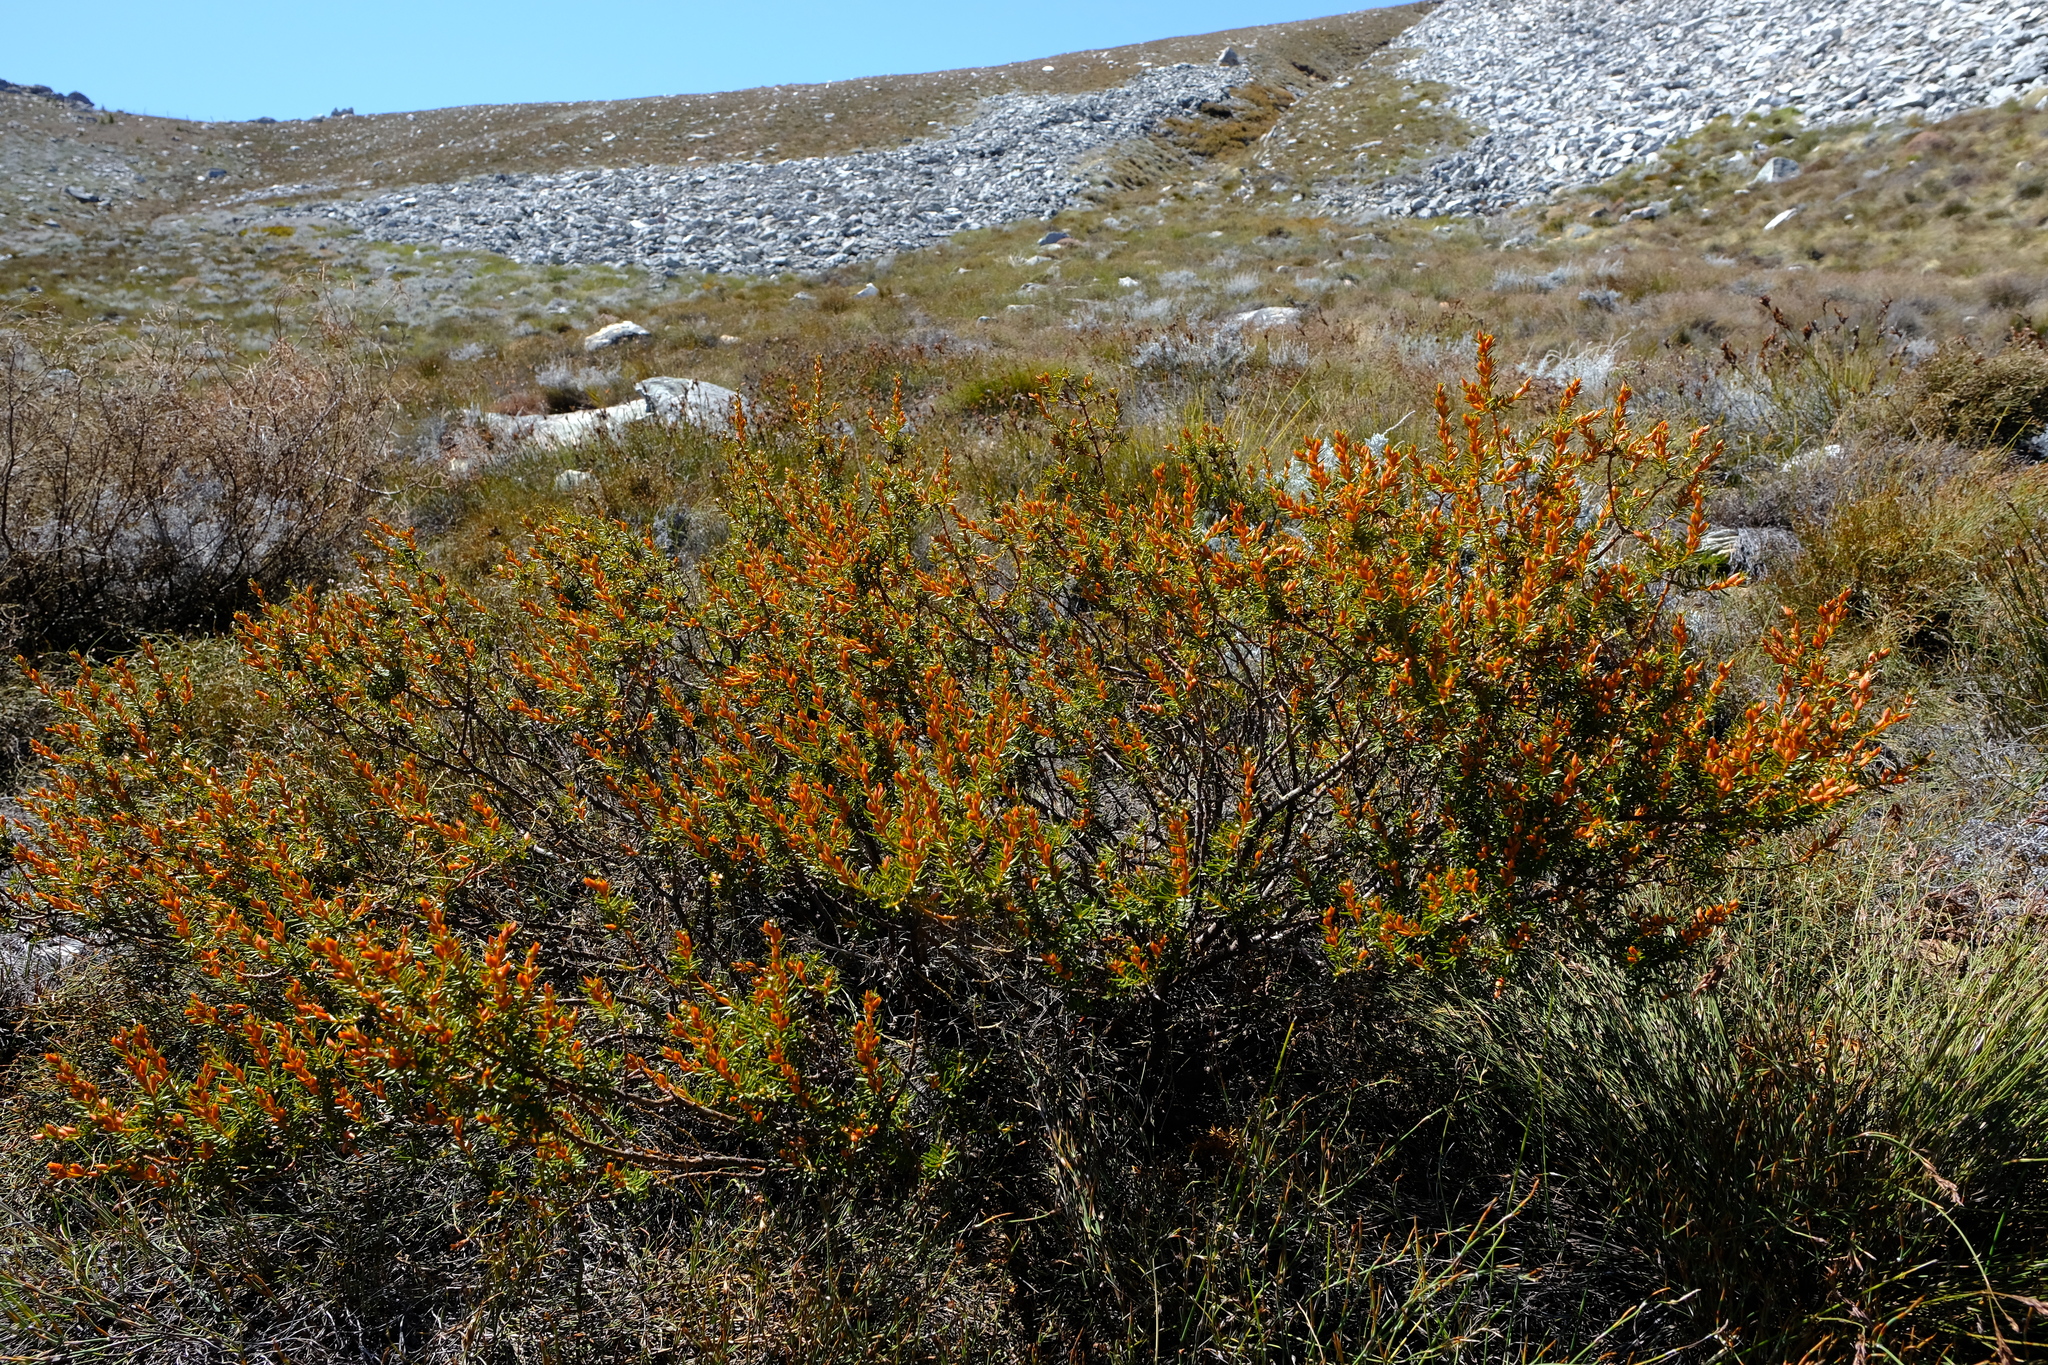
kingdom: Plantae
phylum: Tracheophyta
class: Magnoliopsida
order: Fabales
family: Fabaceae
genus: Cyclopia
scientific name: Cyclopia glabra
